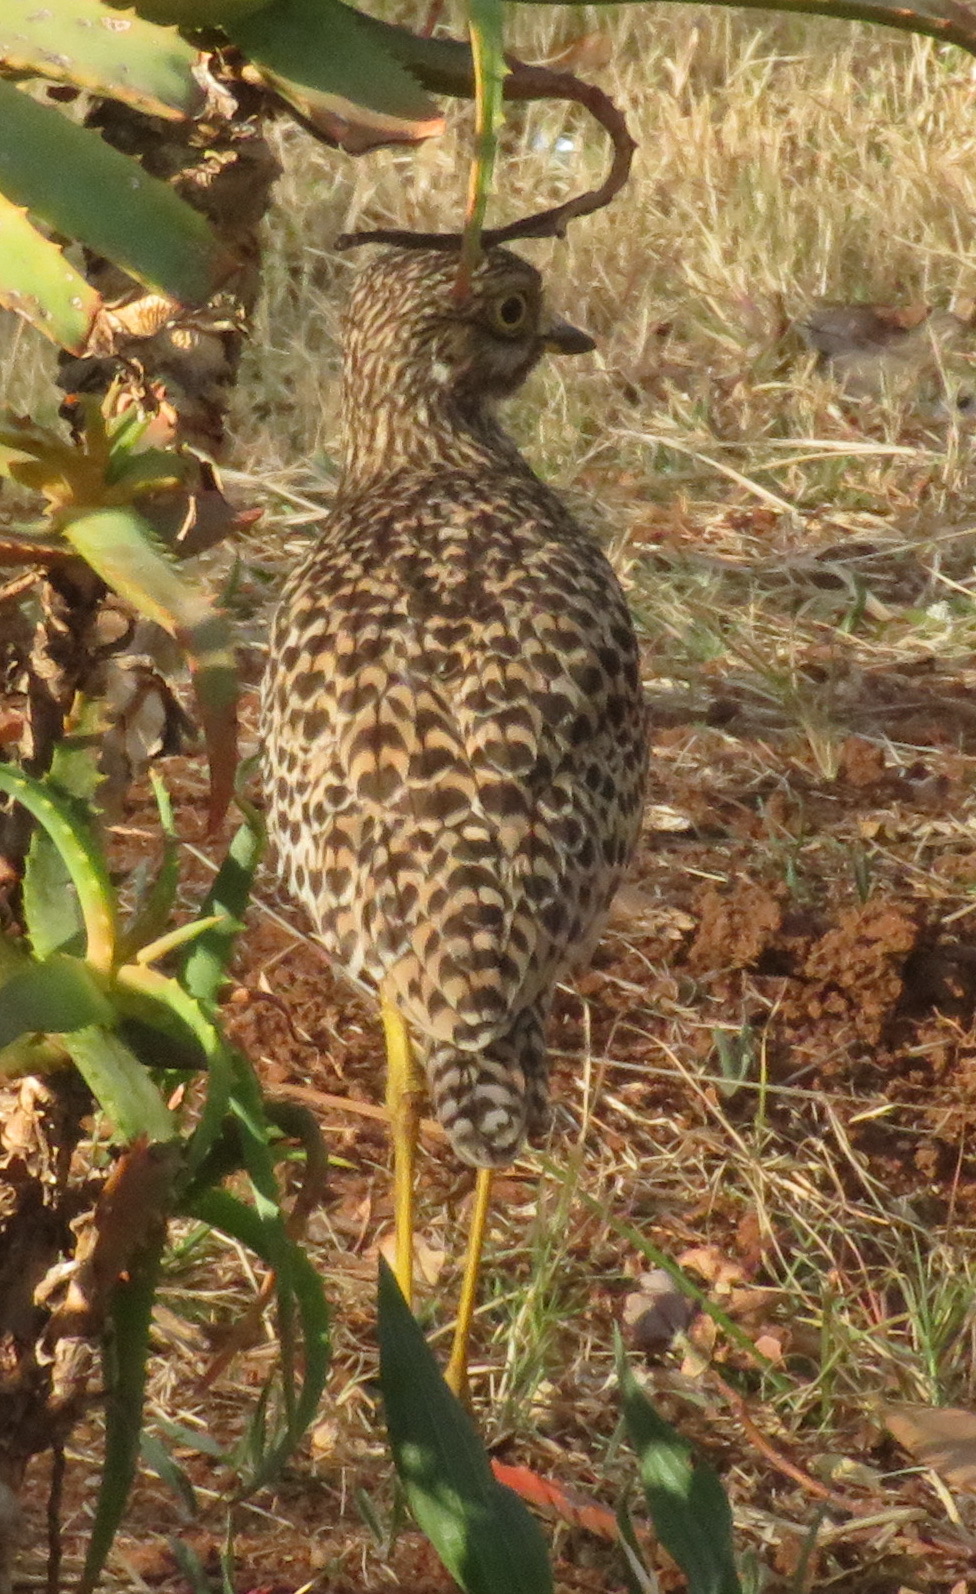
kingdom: Animalia
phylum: Chordata
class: Aves
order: Charadriiformes
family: Burhinidae
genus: Burhinus
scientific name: Burhinus capensis
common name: Spotted thick-knee
